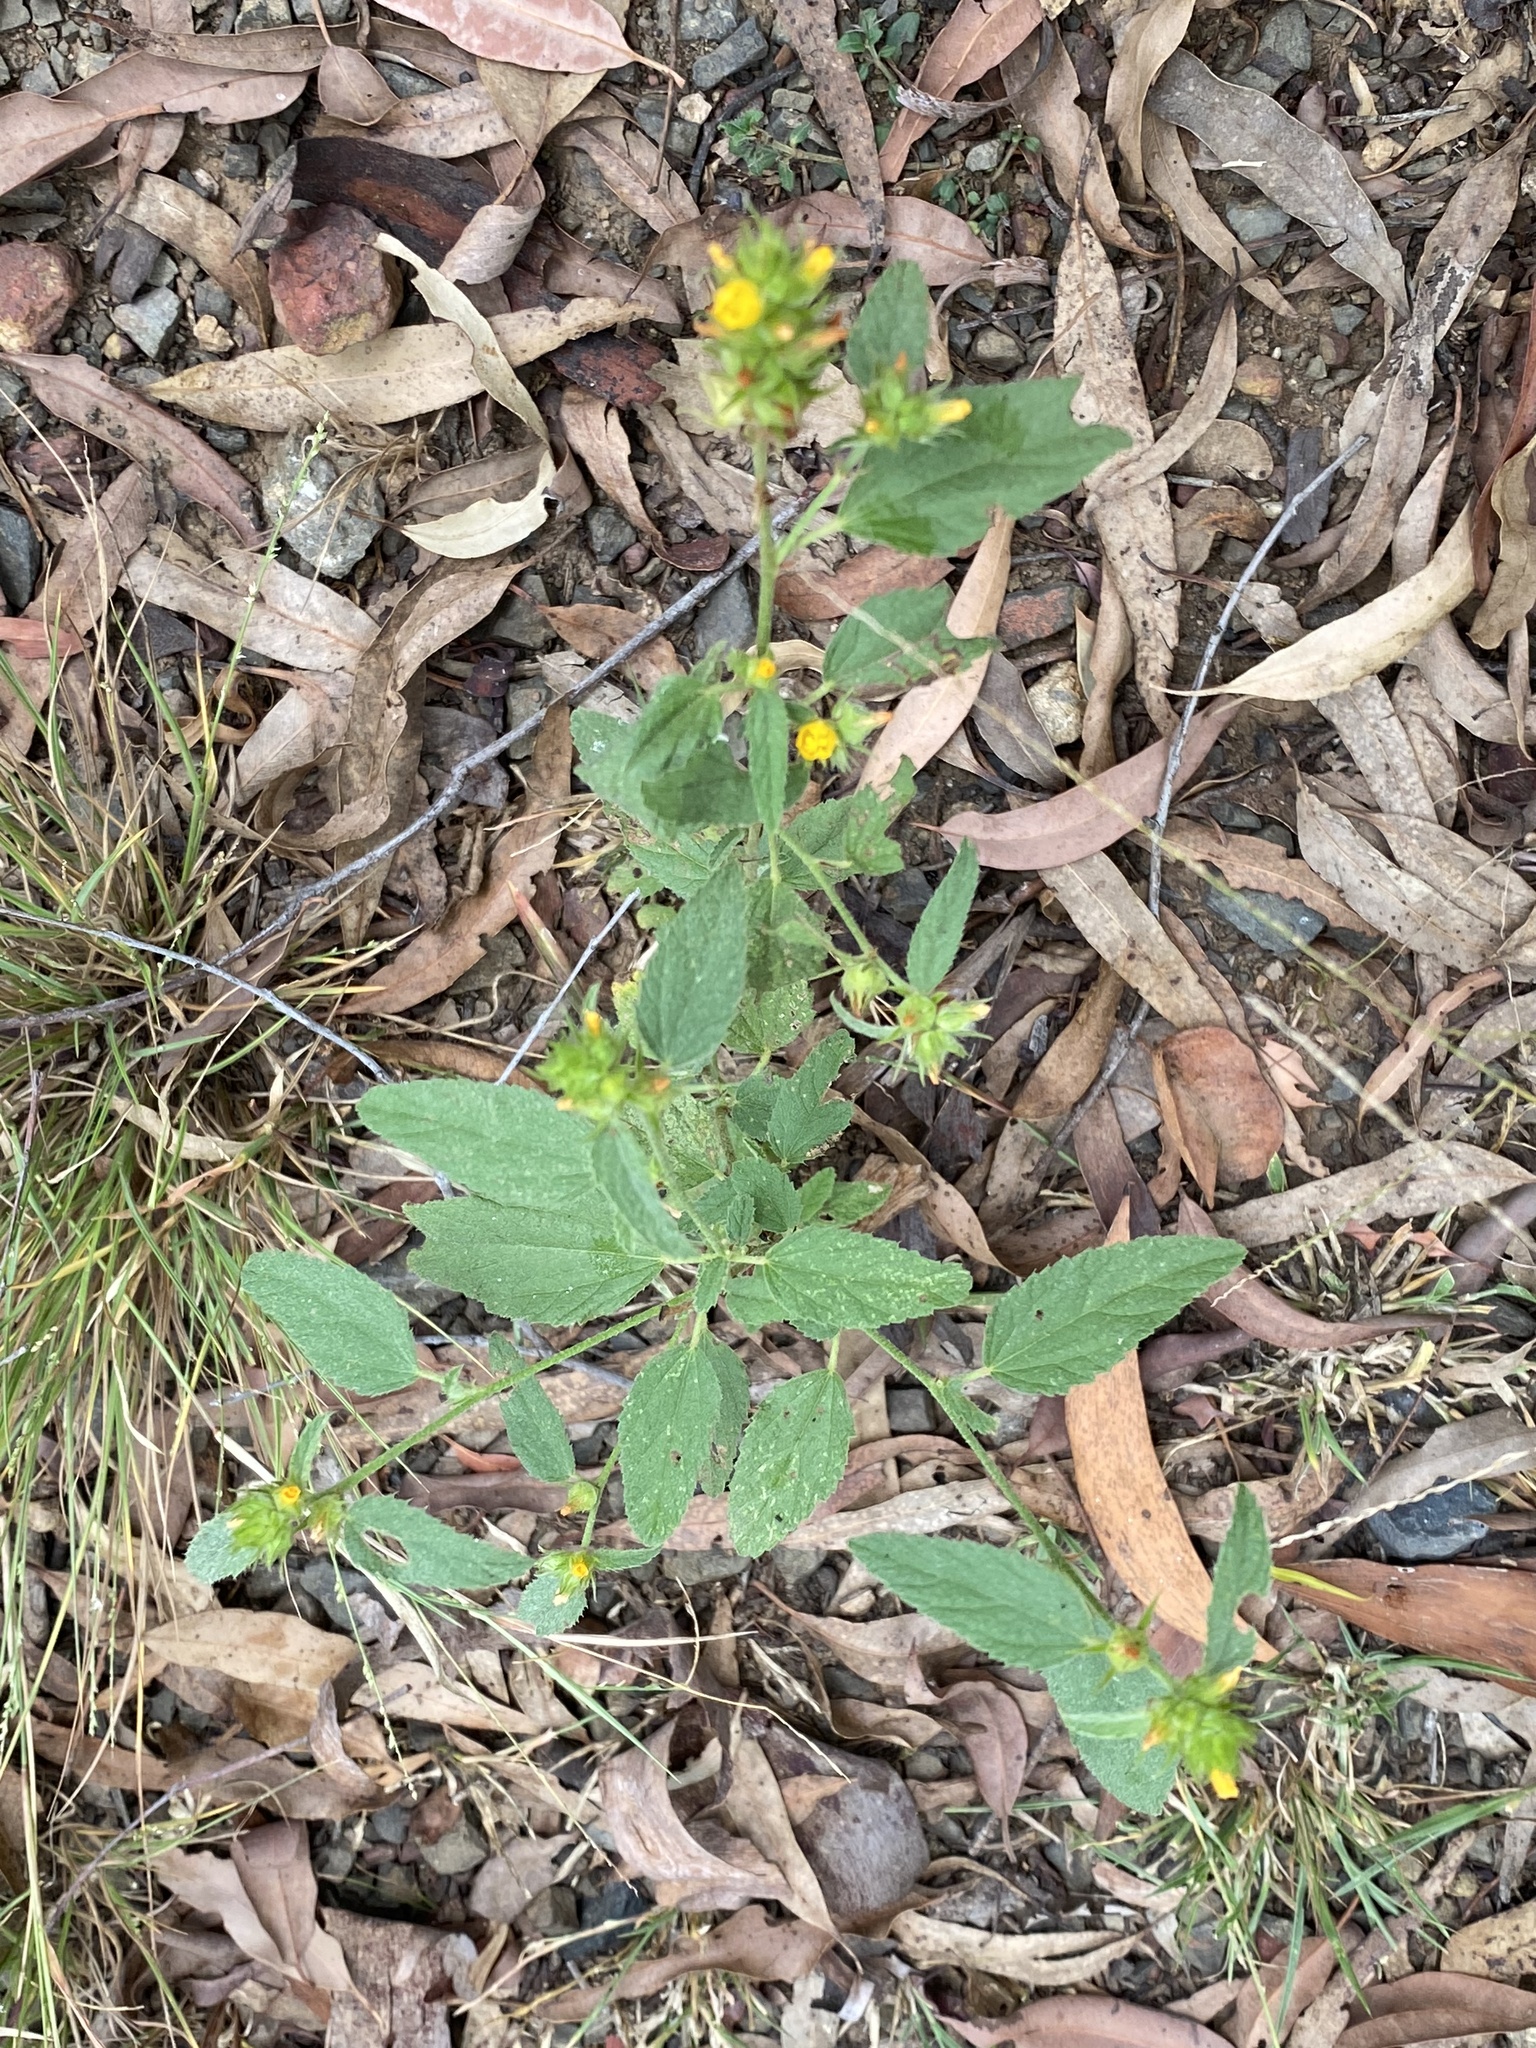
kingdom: Plantae
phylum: Tracheophyta
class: Magnoliopsida
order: Malvales
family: Malvaceae
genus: Malvastrum
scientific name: Malvastrum americanum
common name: Spiked malvastrum
